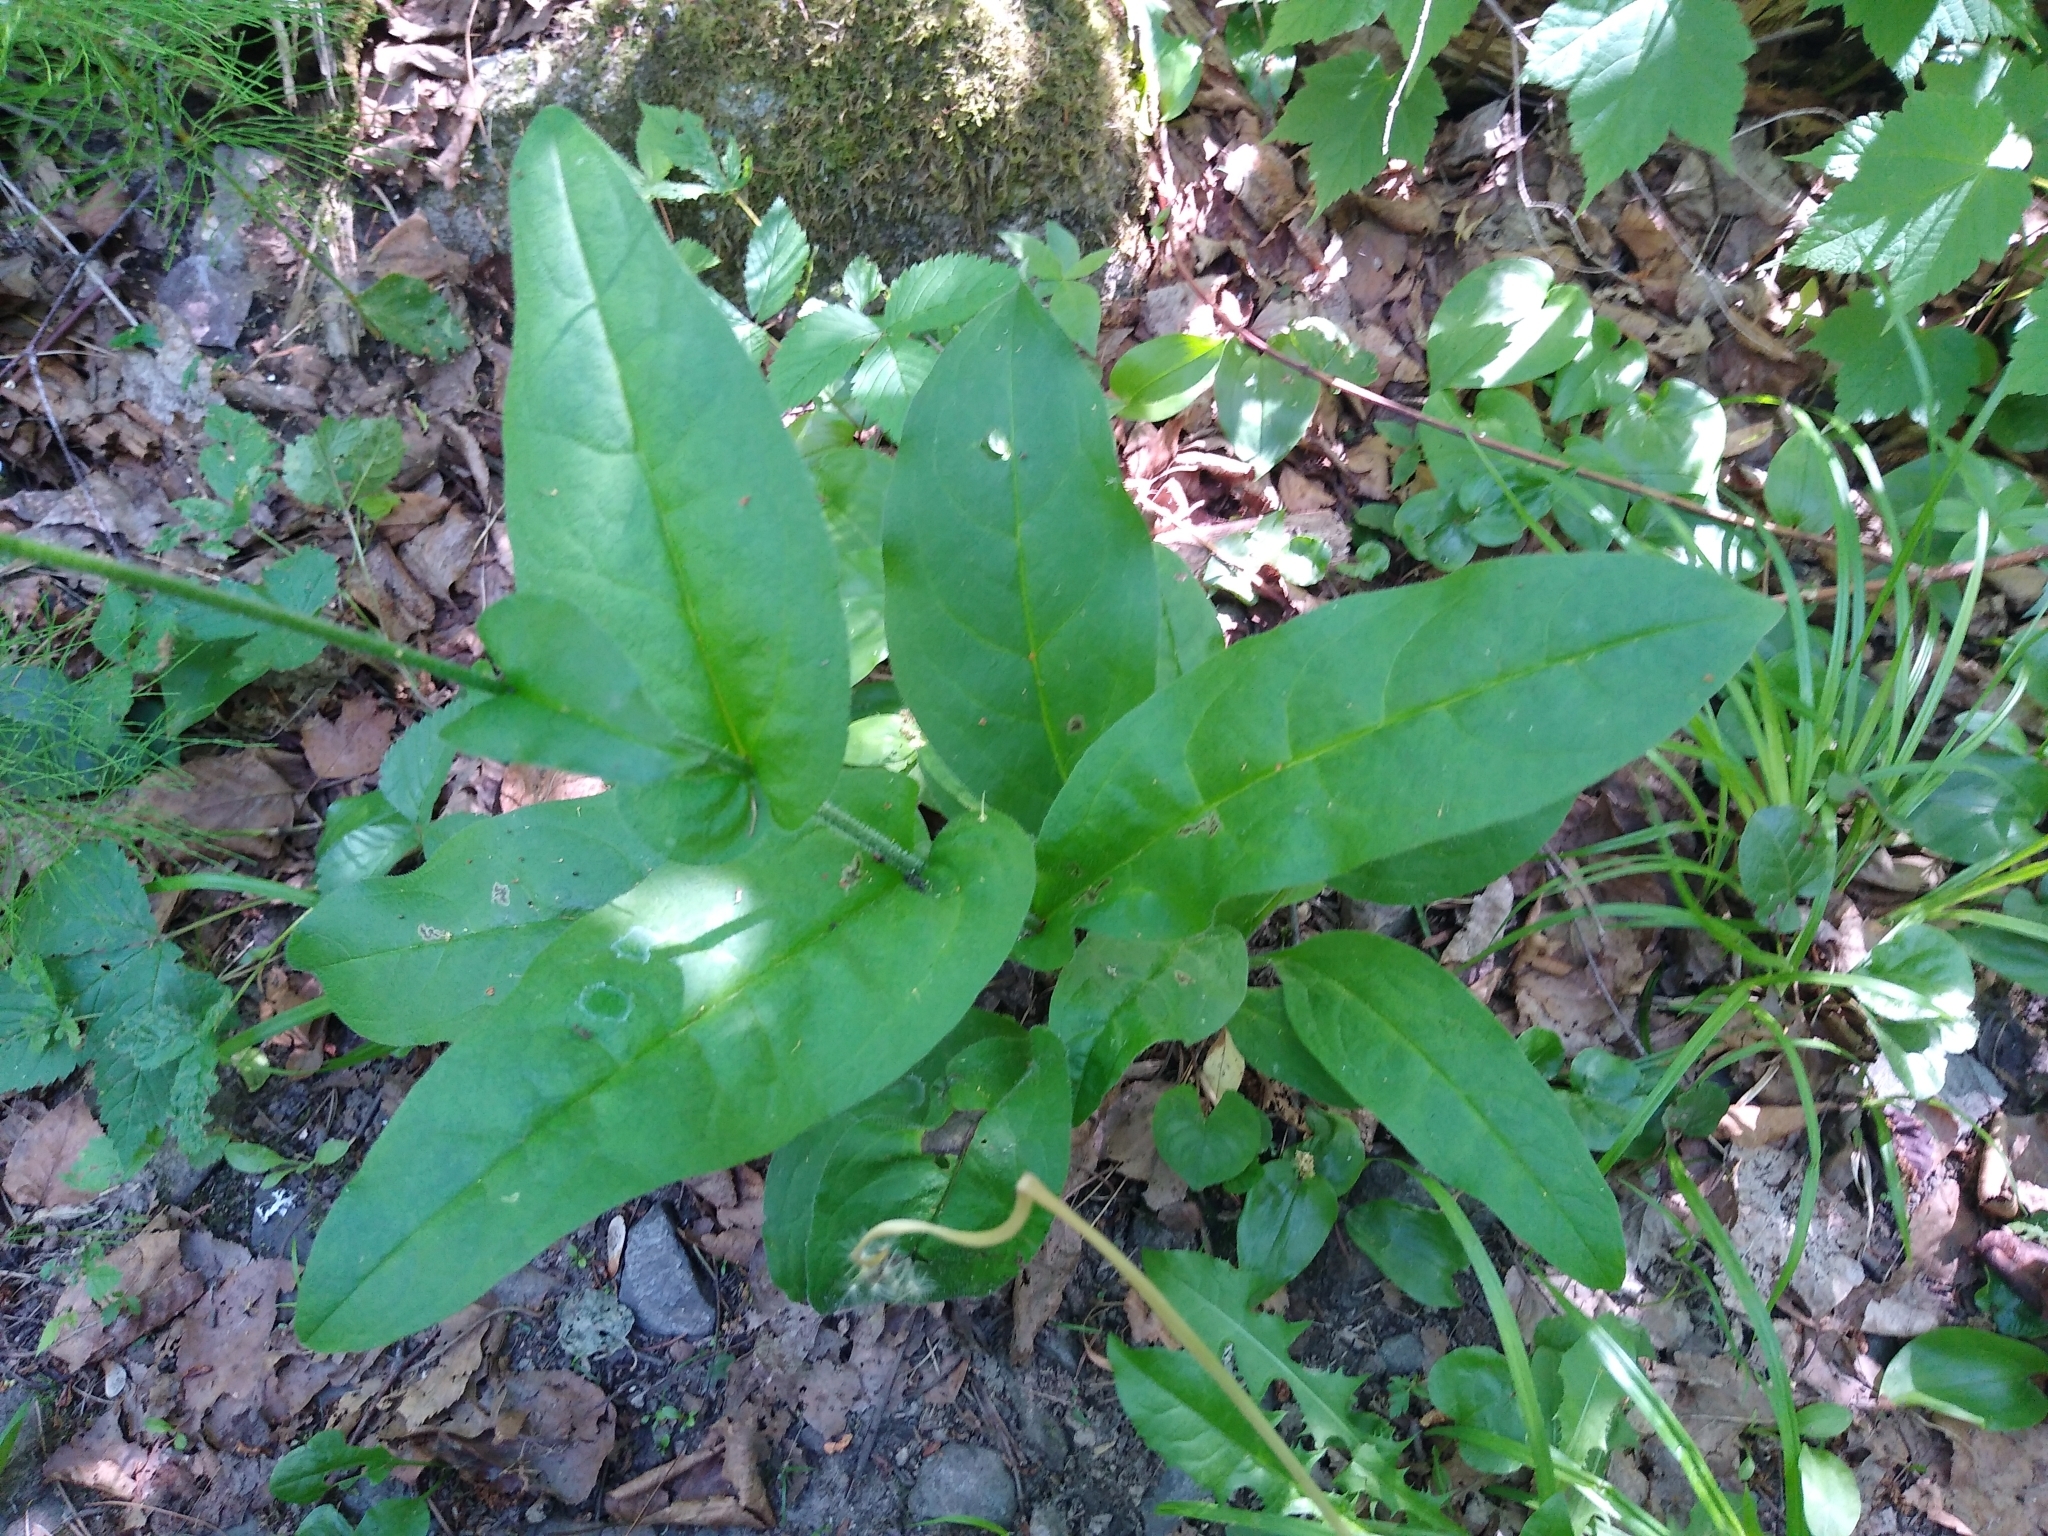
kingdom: Plantae
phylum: Tracheophyta
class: Magnoliopsida
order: Boraginales
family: Boraginaceae
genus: Andersonglossum
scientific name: Andersonglossum boreale
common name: Northern hound's-tongue
